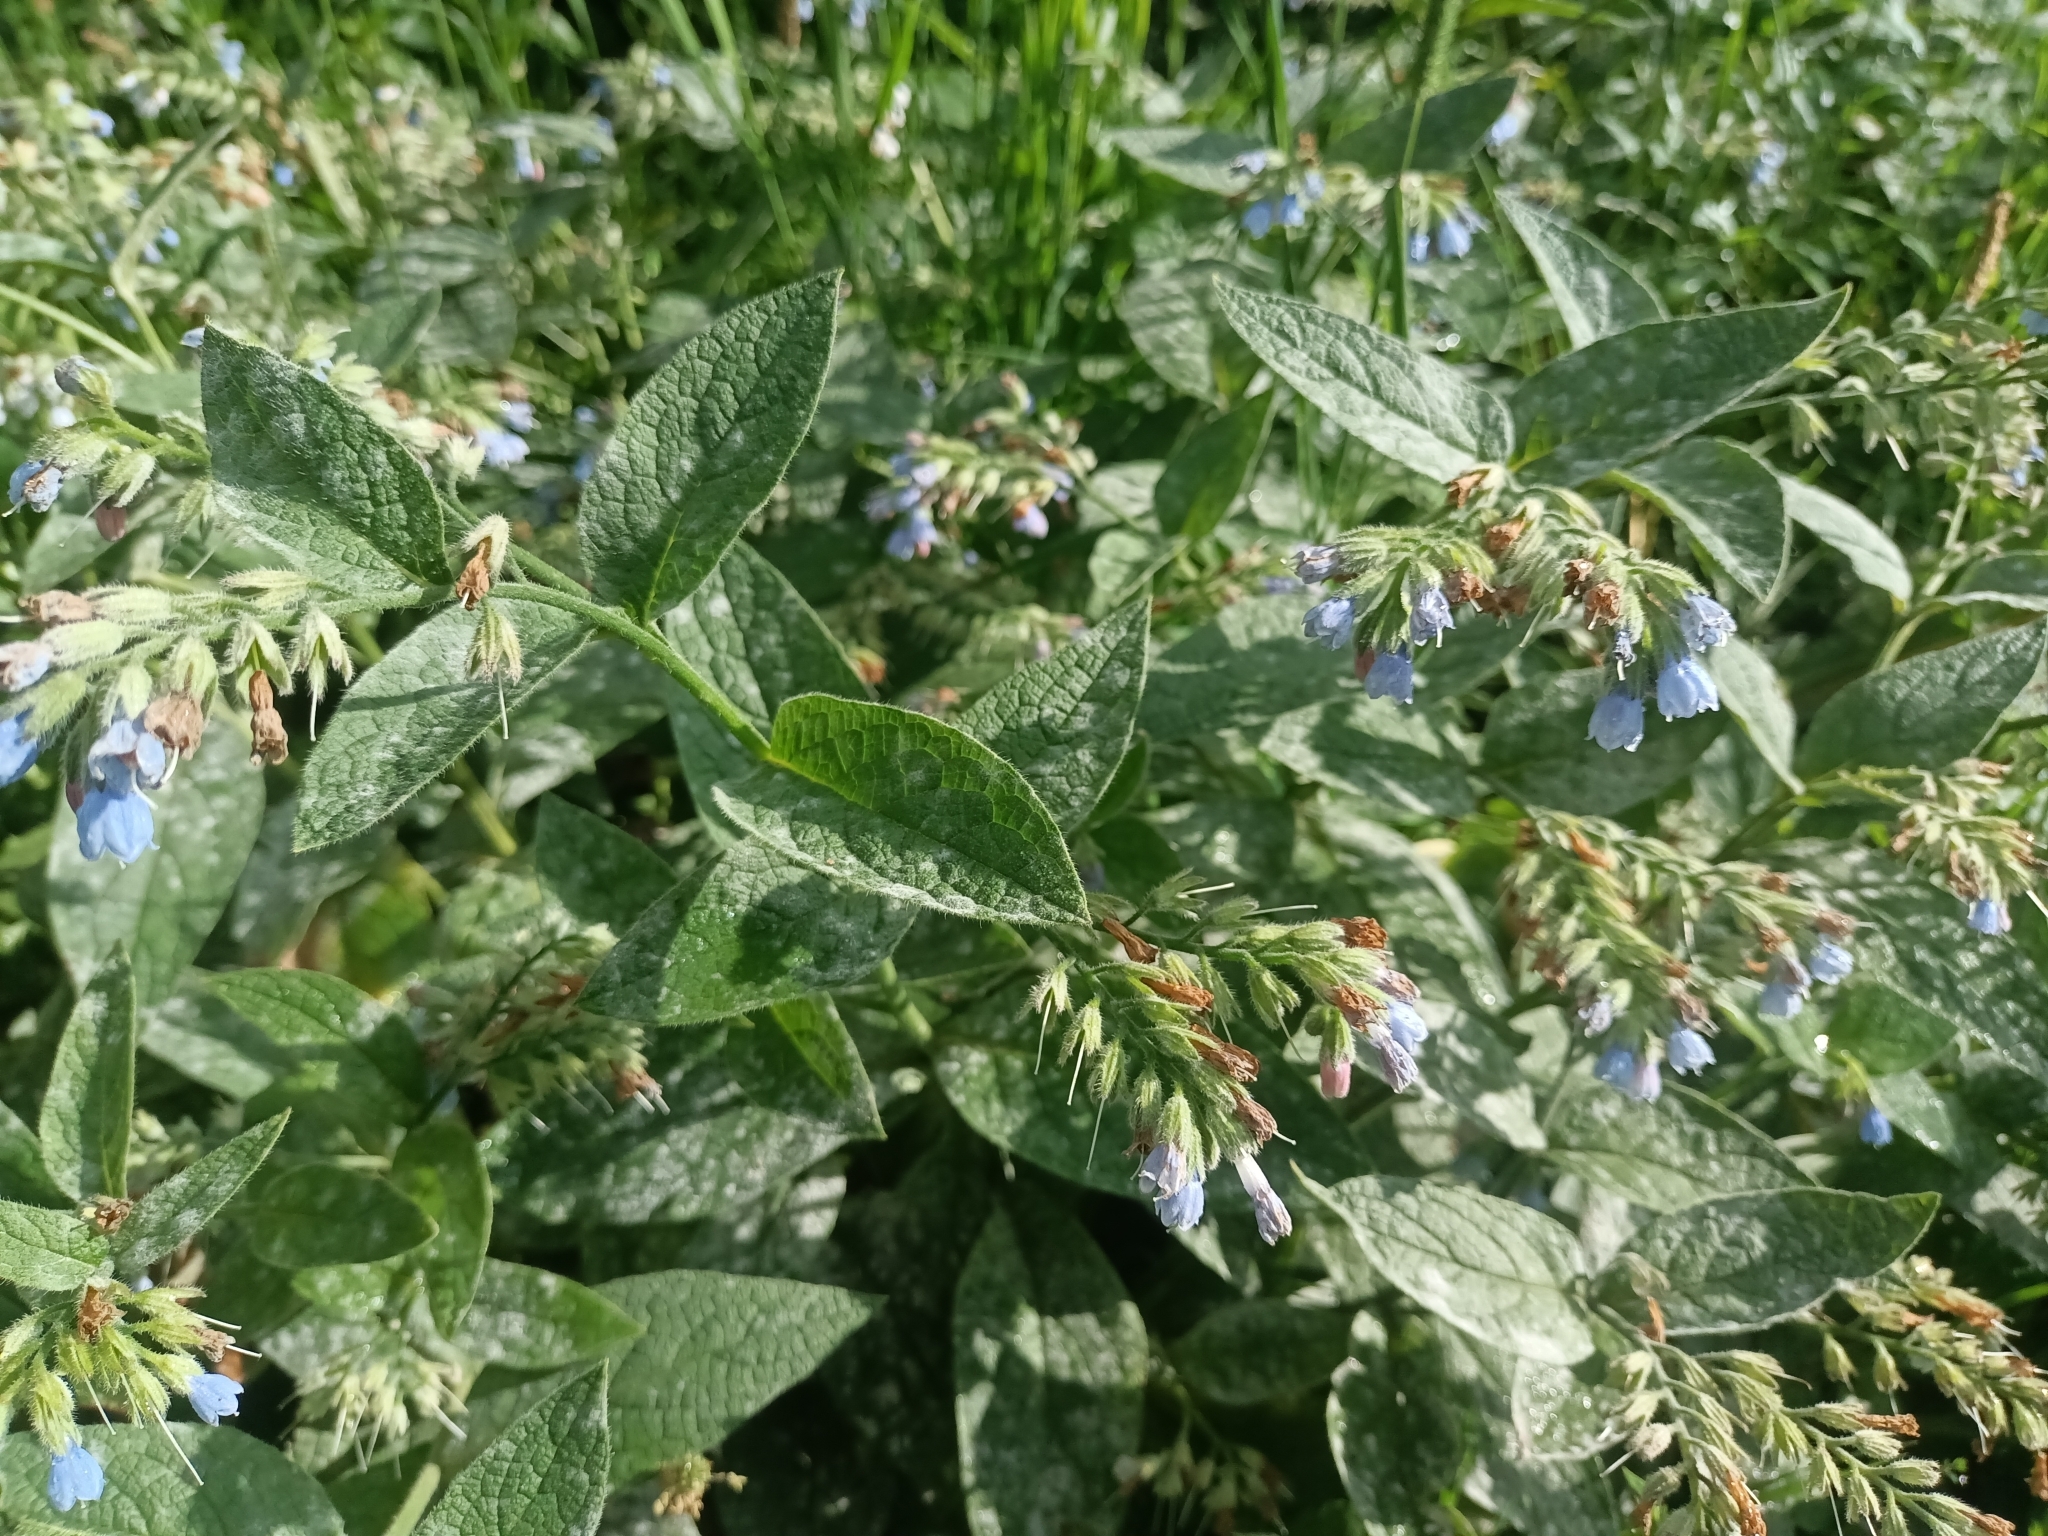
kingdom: Plantae
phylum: Tracheophyta
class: Magnoliopsida
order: Boraginales
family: Boraginaceae
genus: Symphytum
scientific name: Symphytum caucasicum
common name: Caucasian comfrey
